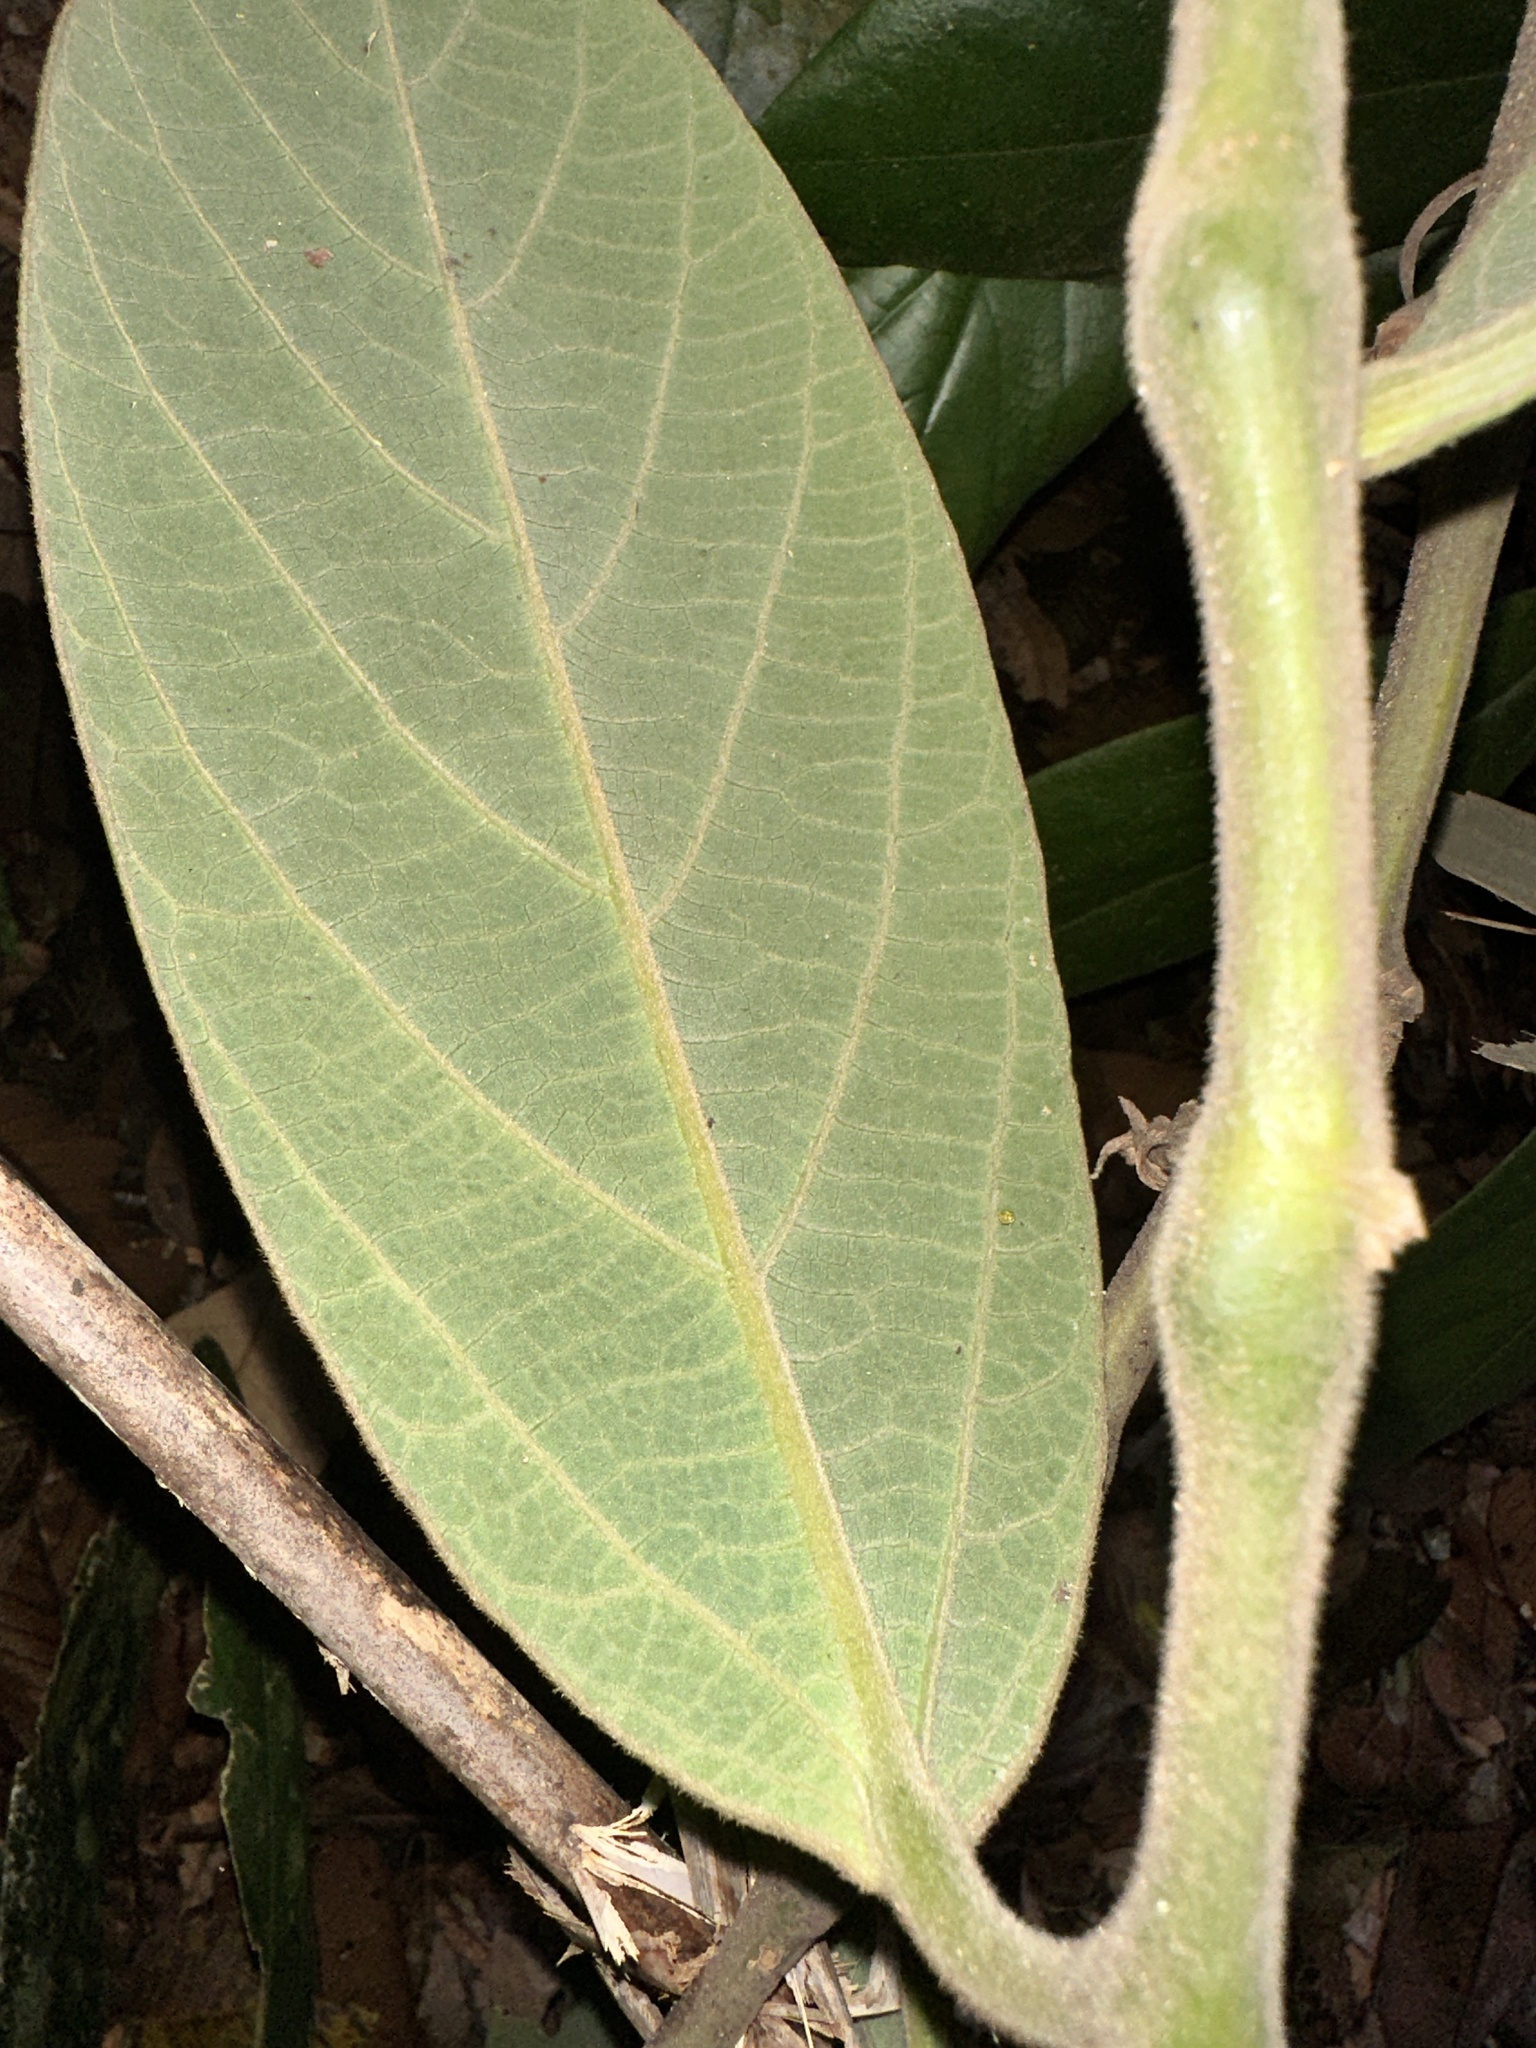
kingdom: Plantae
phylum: Tracheophyta
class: Magnoliopsida
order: Piperales
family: Aristolochiaceae
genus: Thottea
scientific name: Thottea grandiflora
